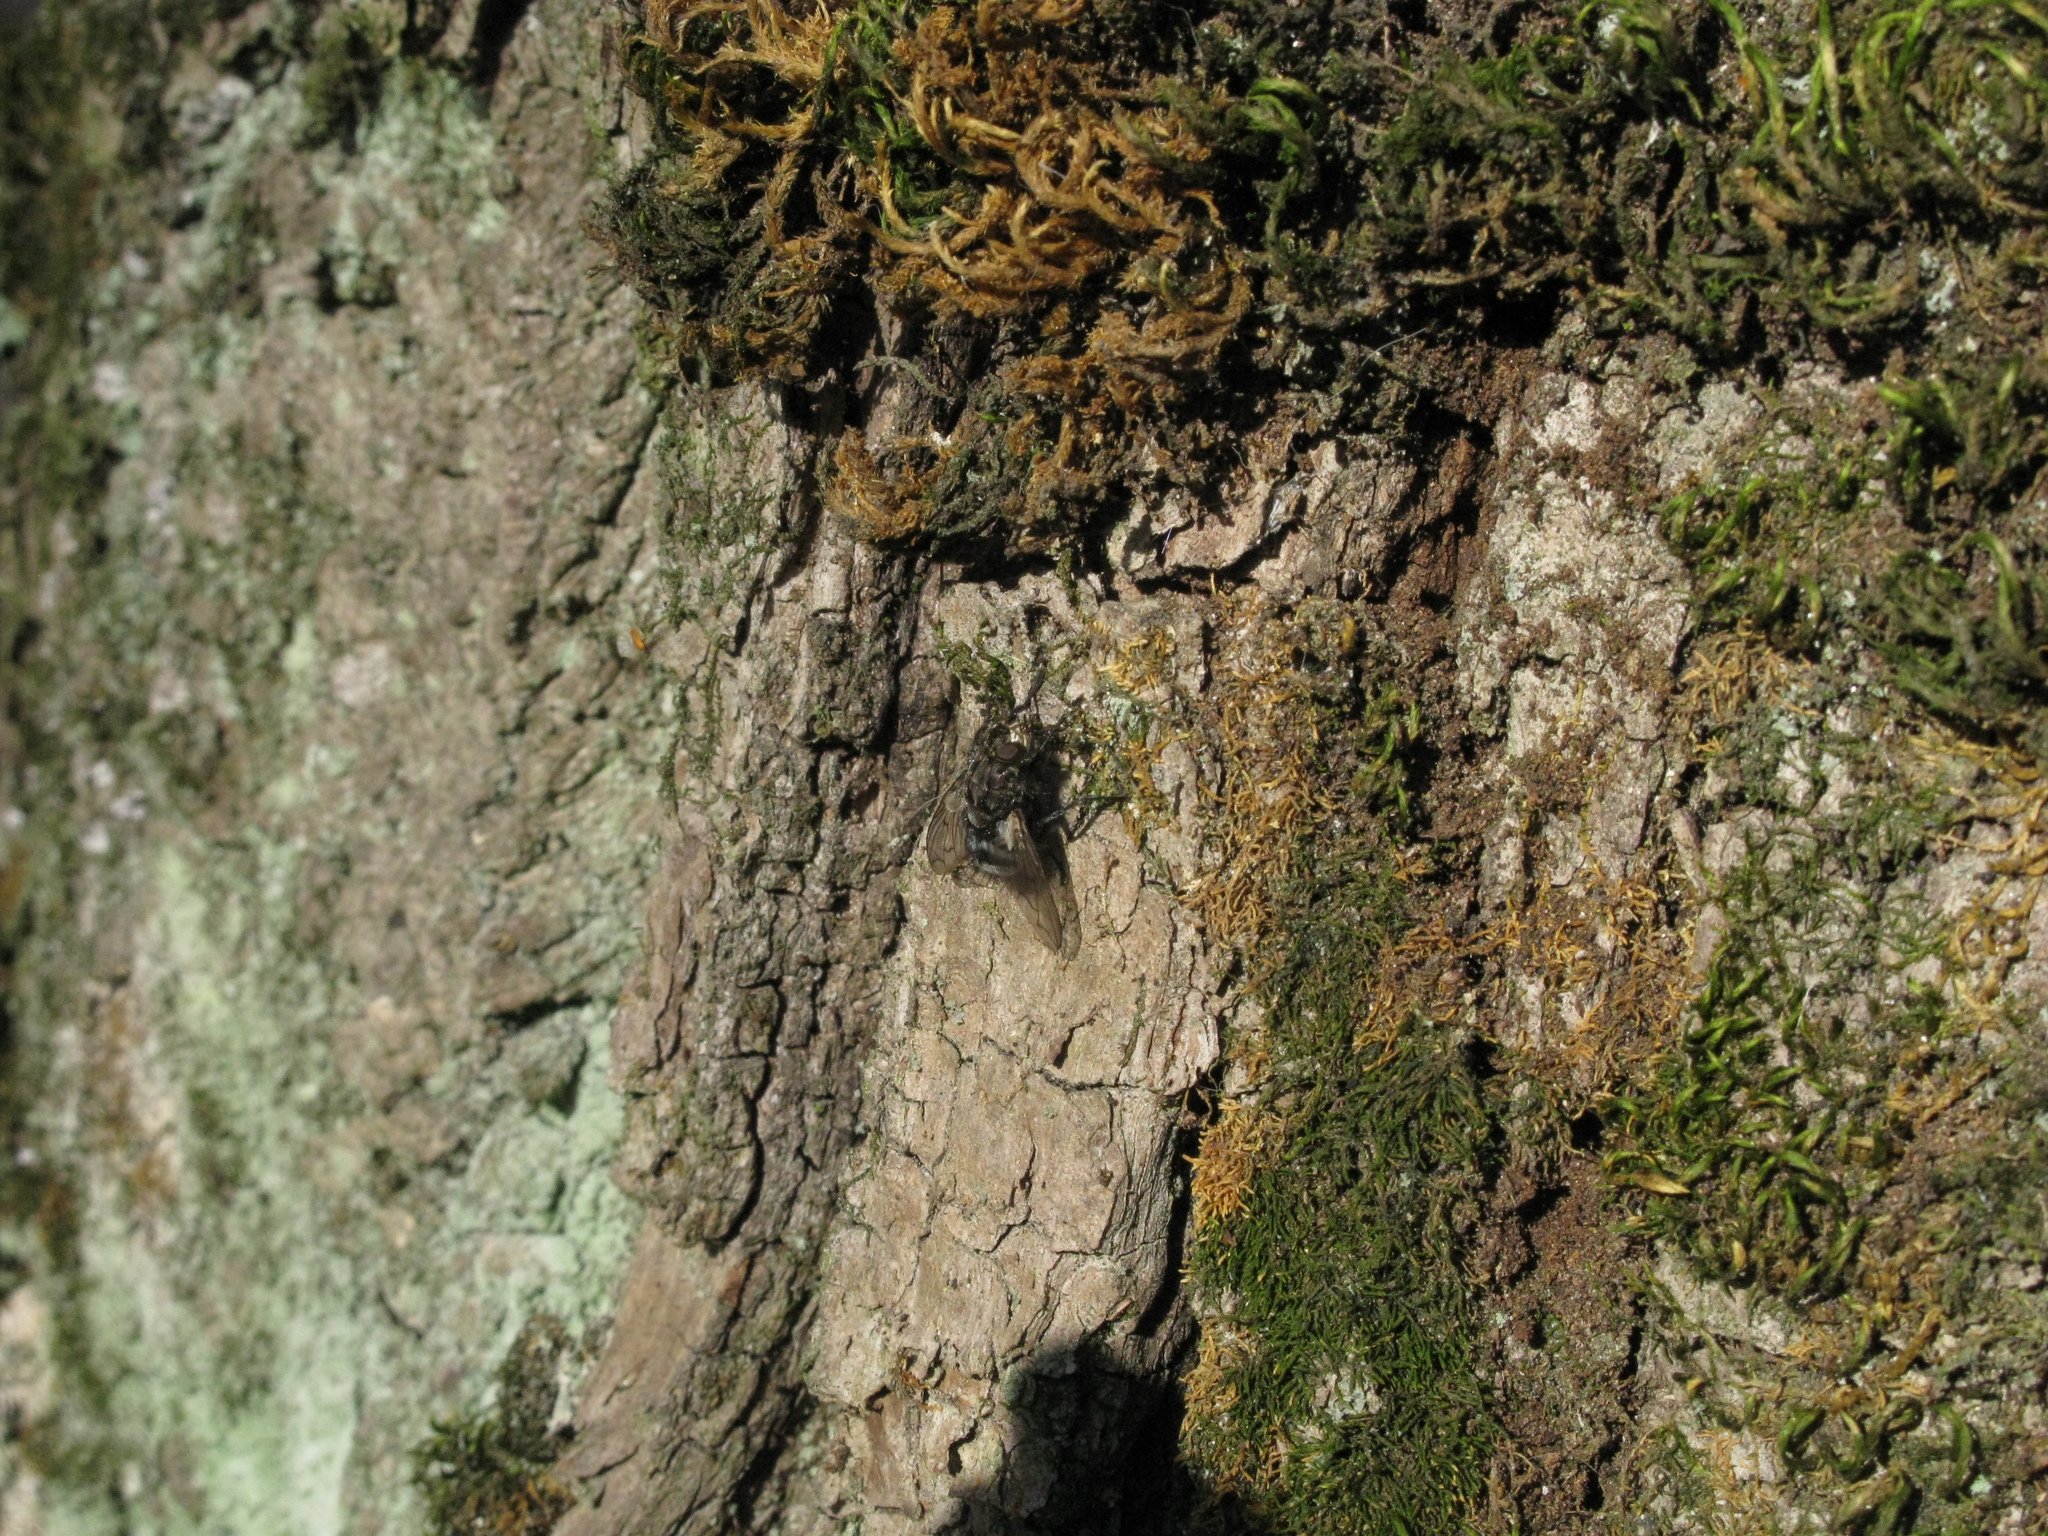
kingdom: Animalia
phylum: Arthropoda
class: Insecta
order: Diptera
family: Tachinidae
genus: Panzeria
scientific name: Panzeria puparum
